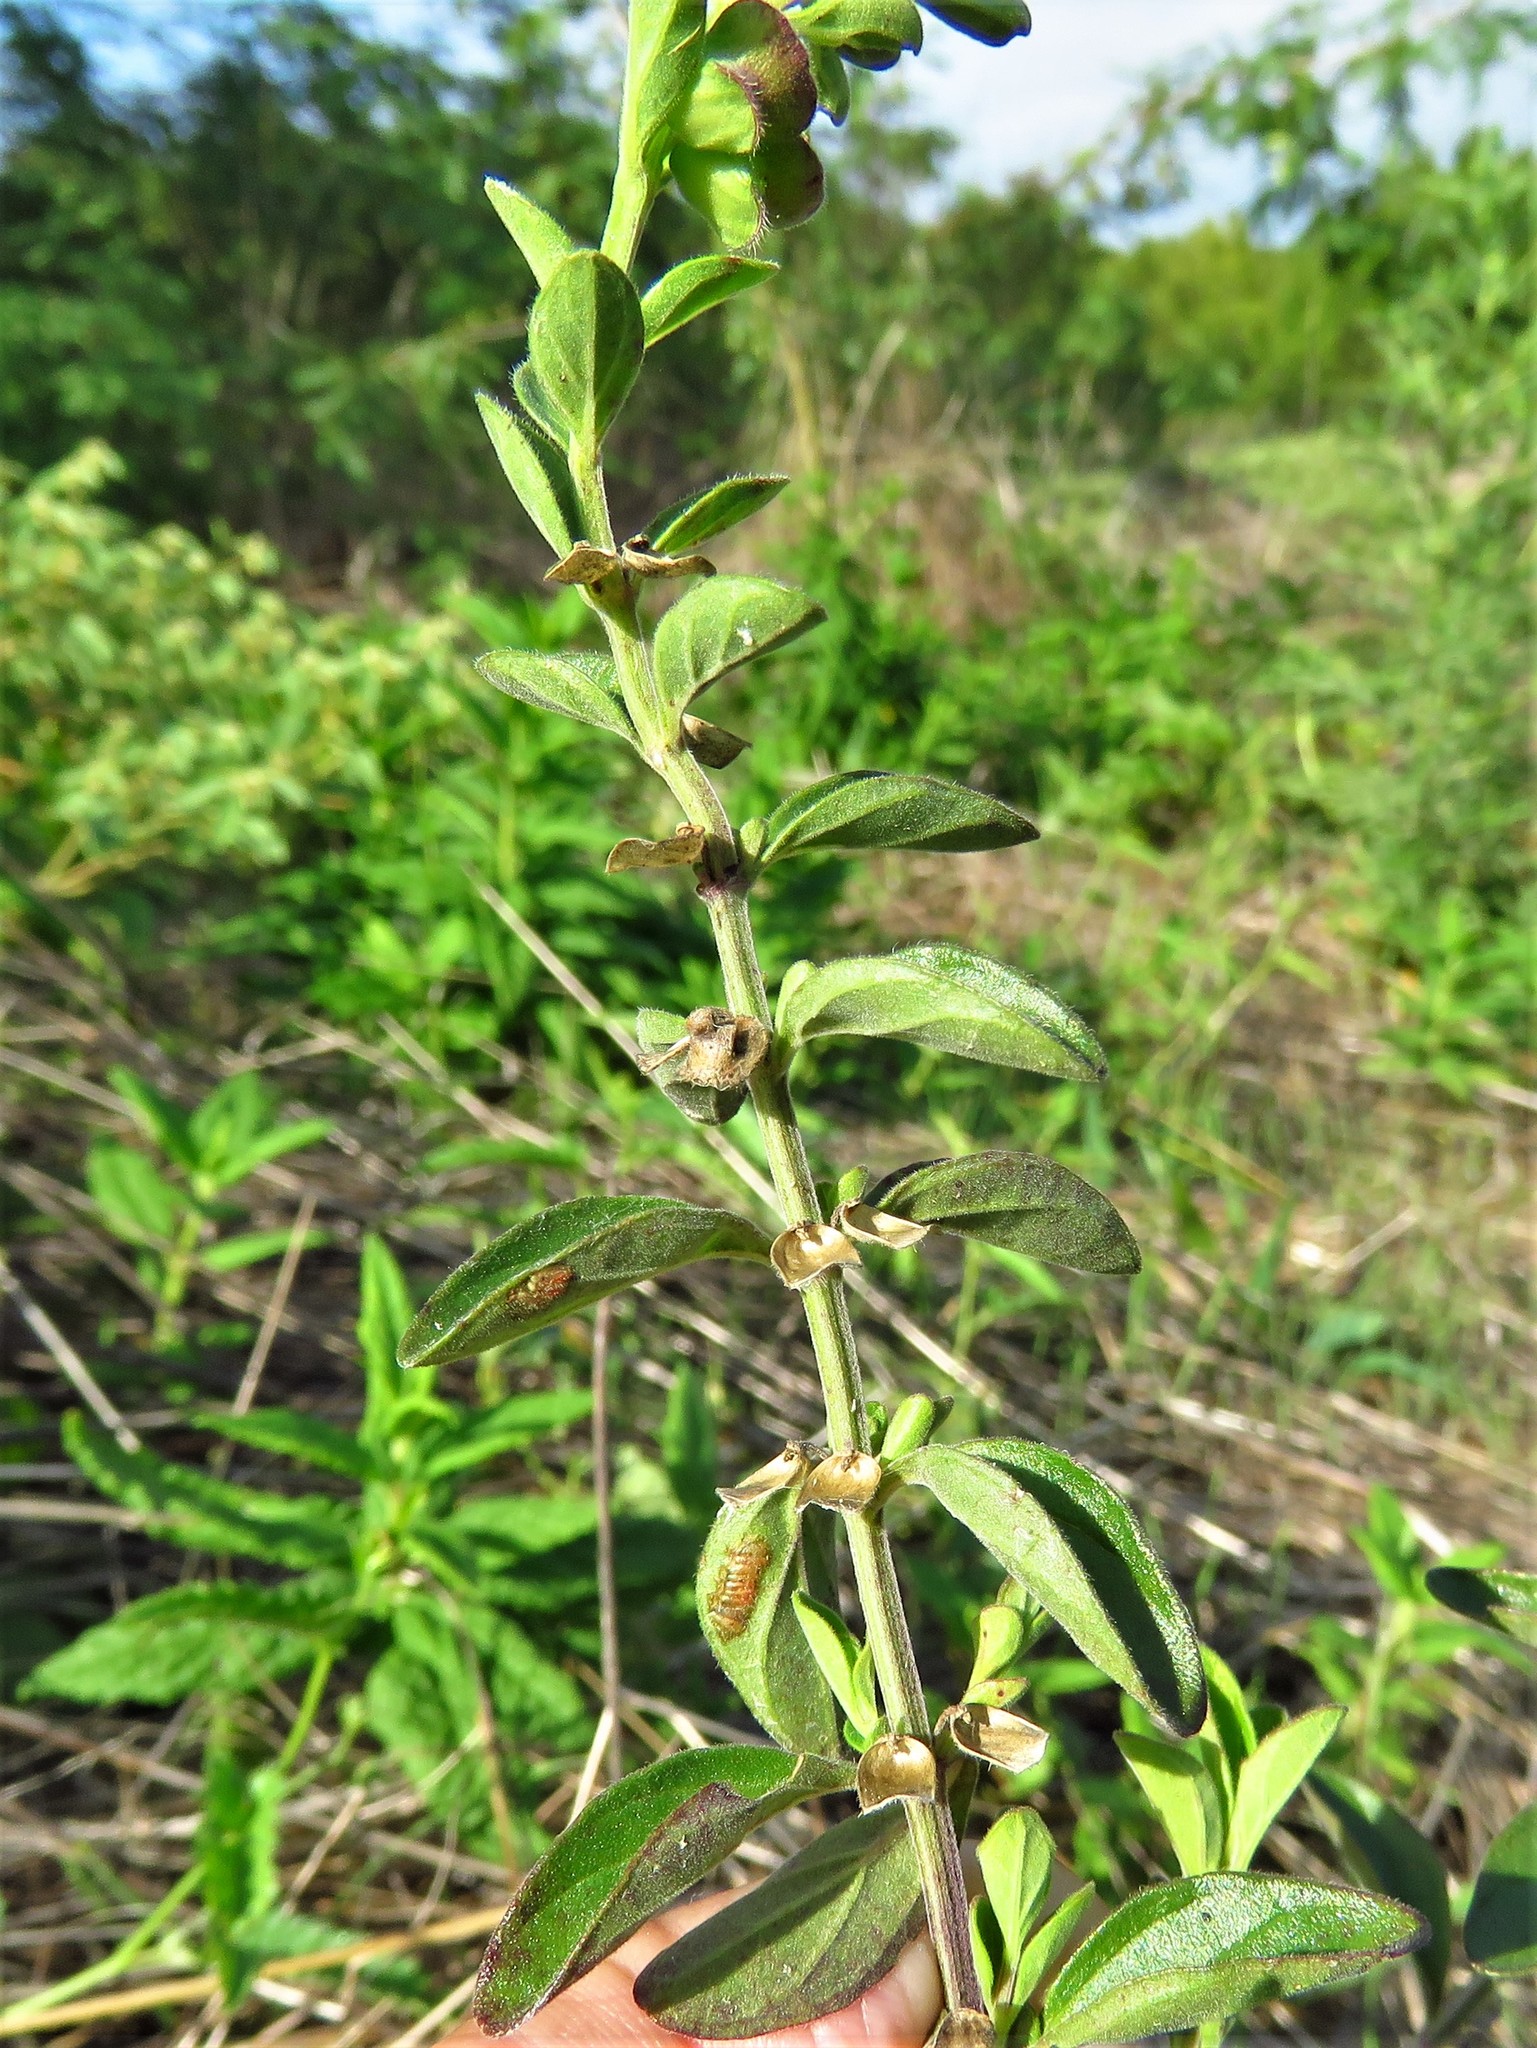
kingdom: Plantae
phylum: Tracheophyta
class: Magnoliopsida
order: Lamiales
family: Lamiaceae
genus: Scutellaria
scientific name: Scutellaria drummondii
